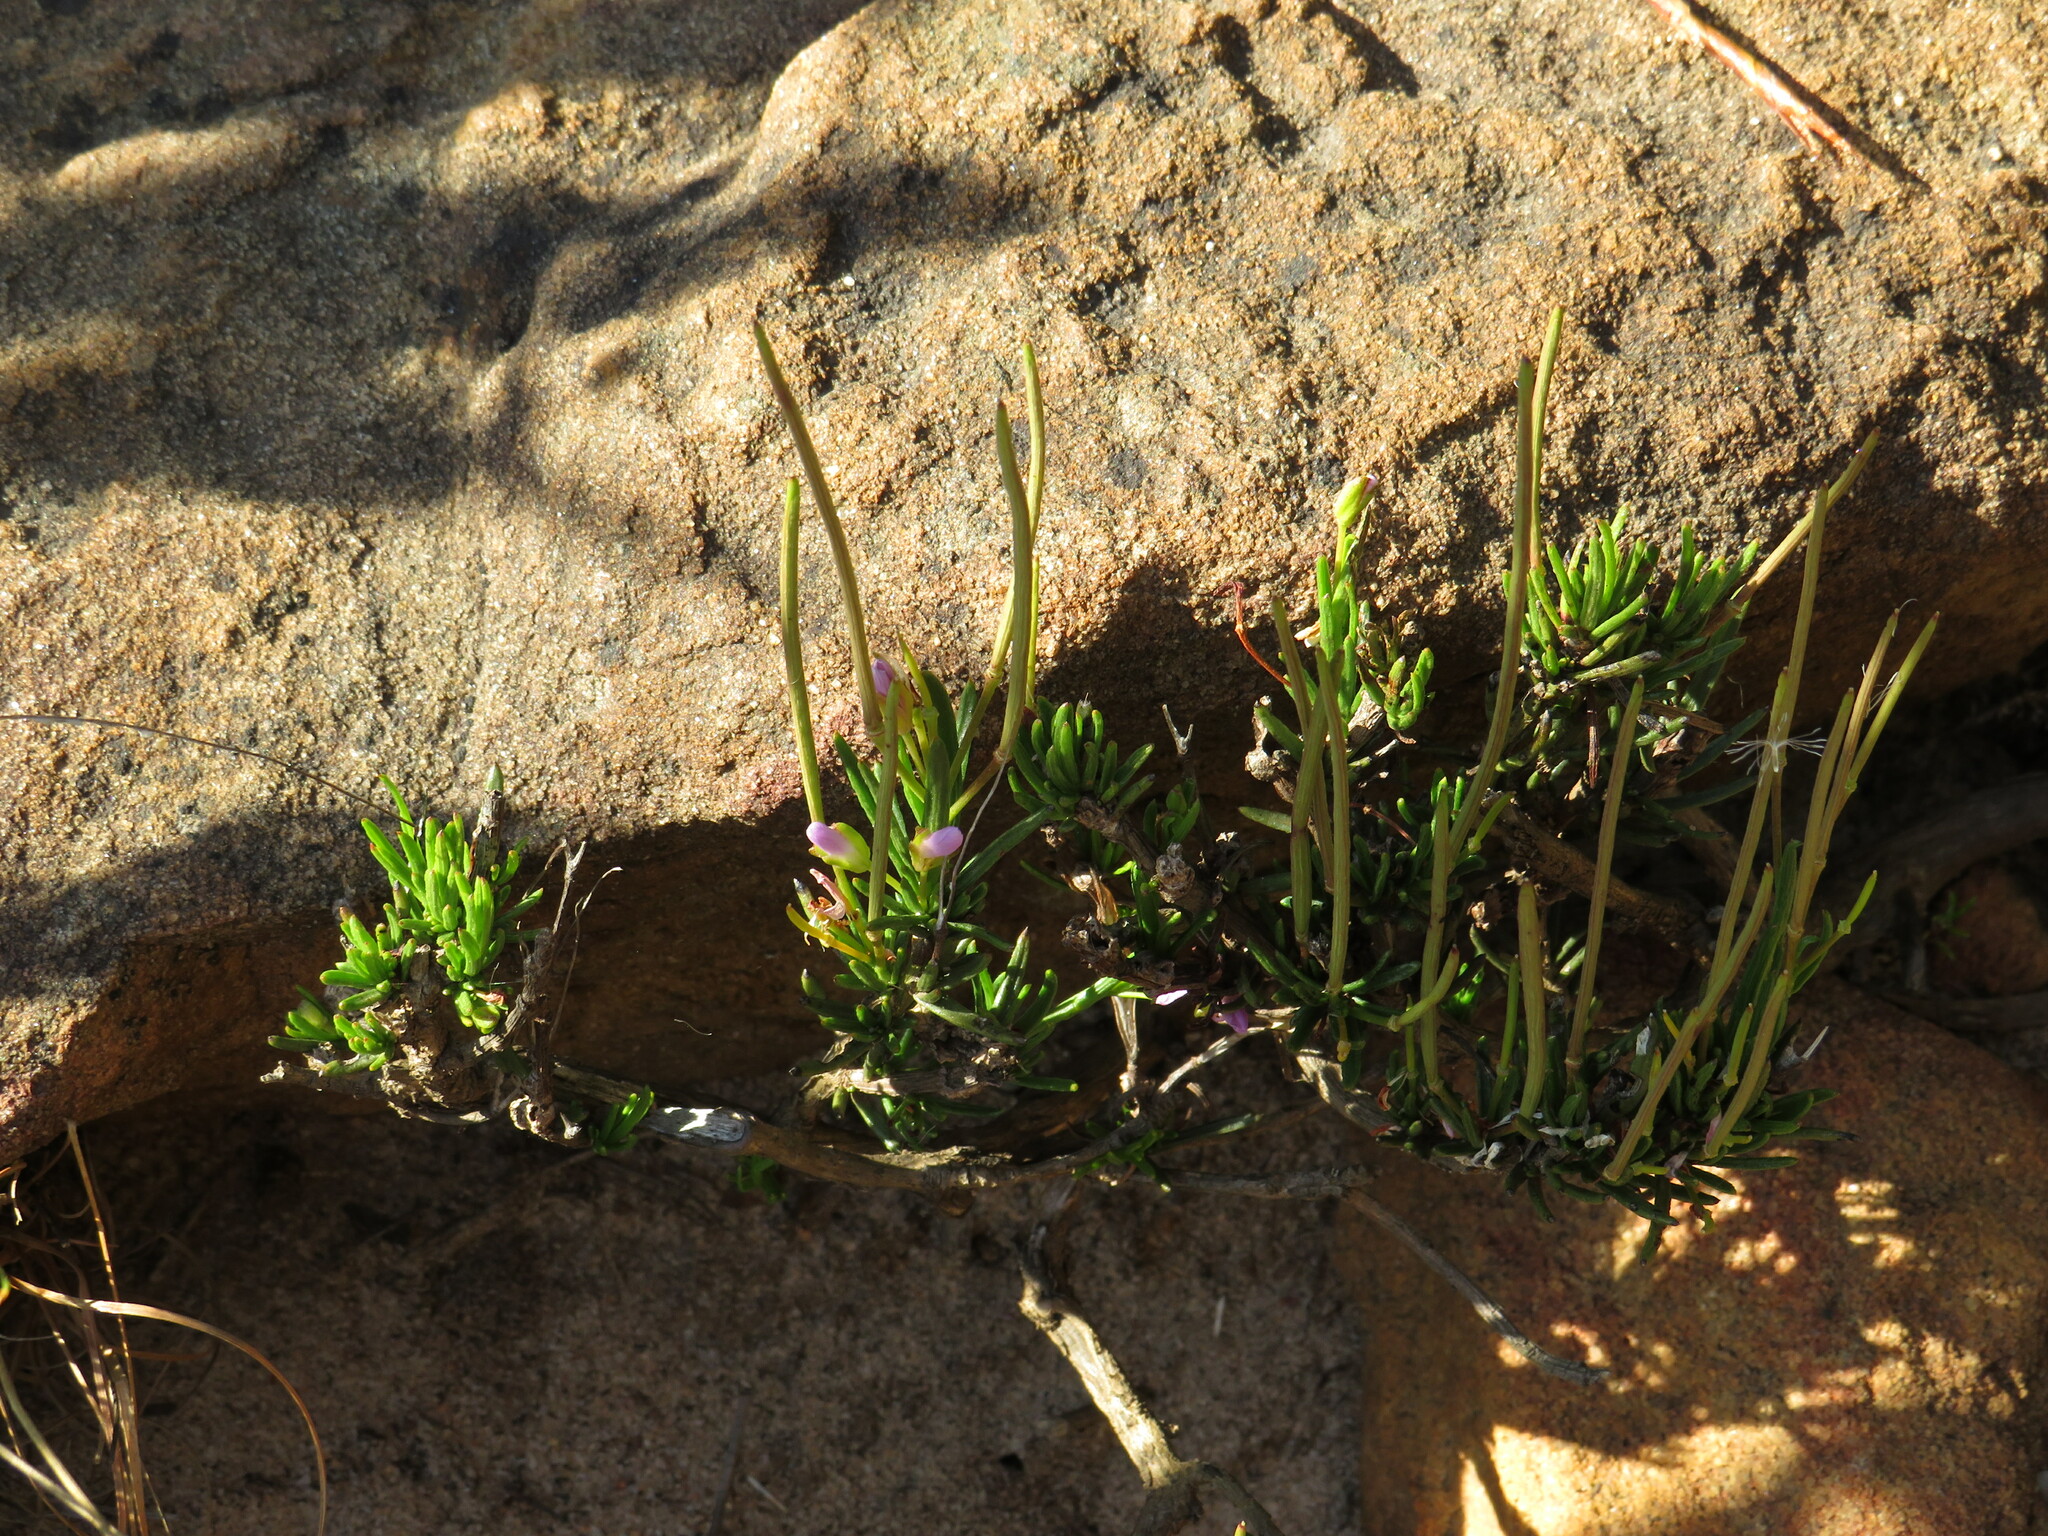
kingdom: Plantae
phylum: Tracheophyta
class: Magnoliopsida
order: Brassicales
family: Brassicaceae
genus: Heliophila
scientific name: Heliophila scoparia
